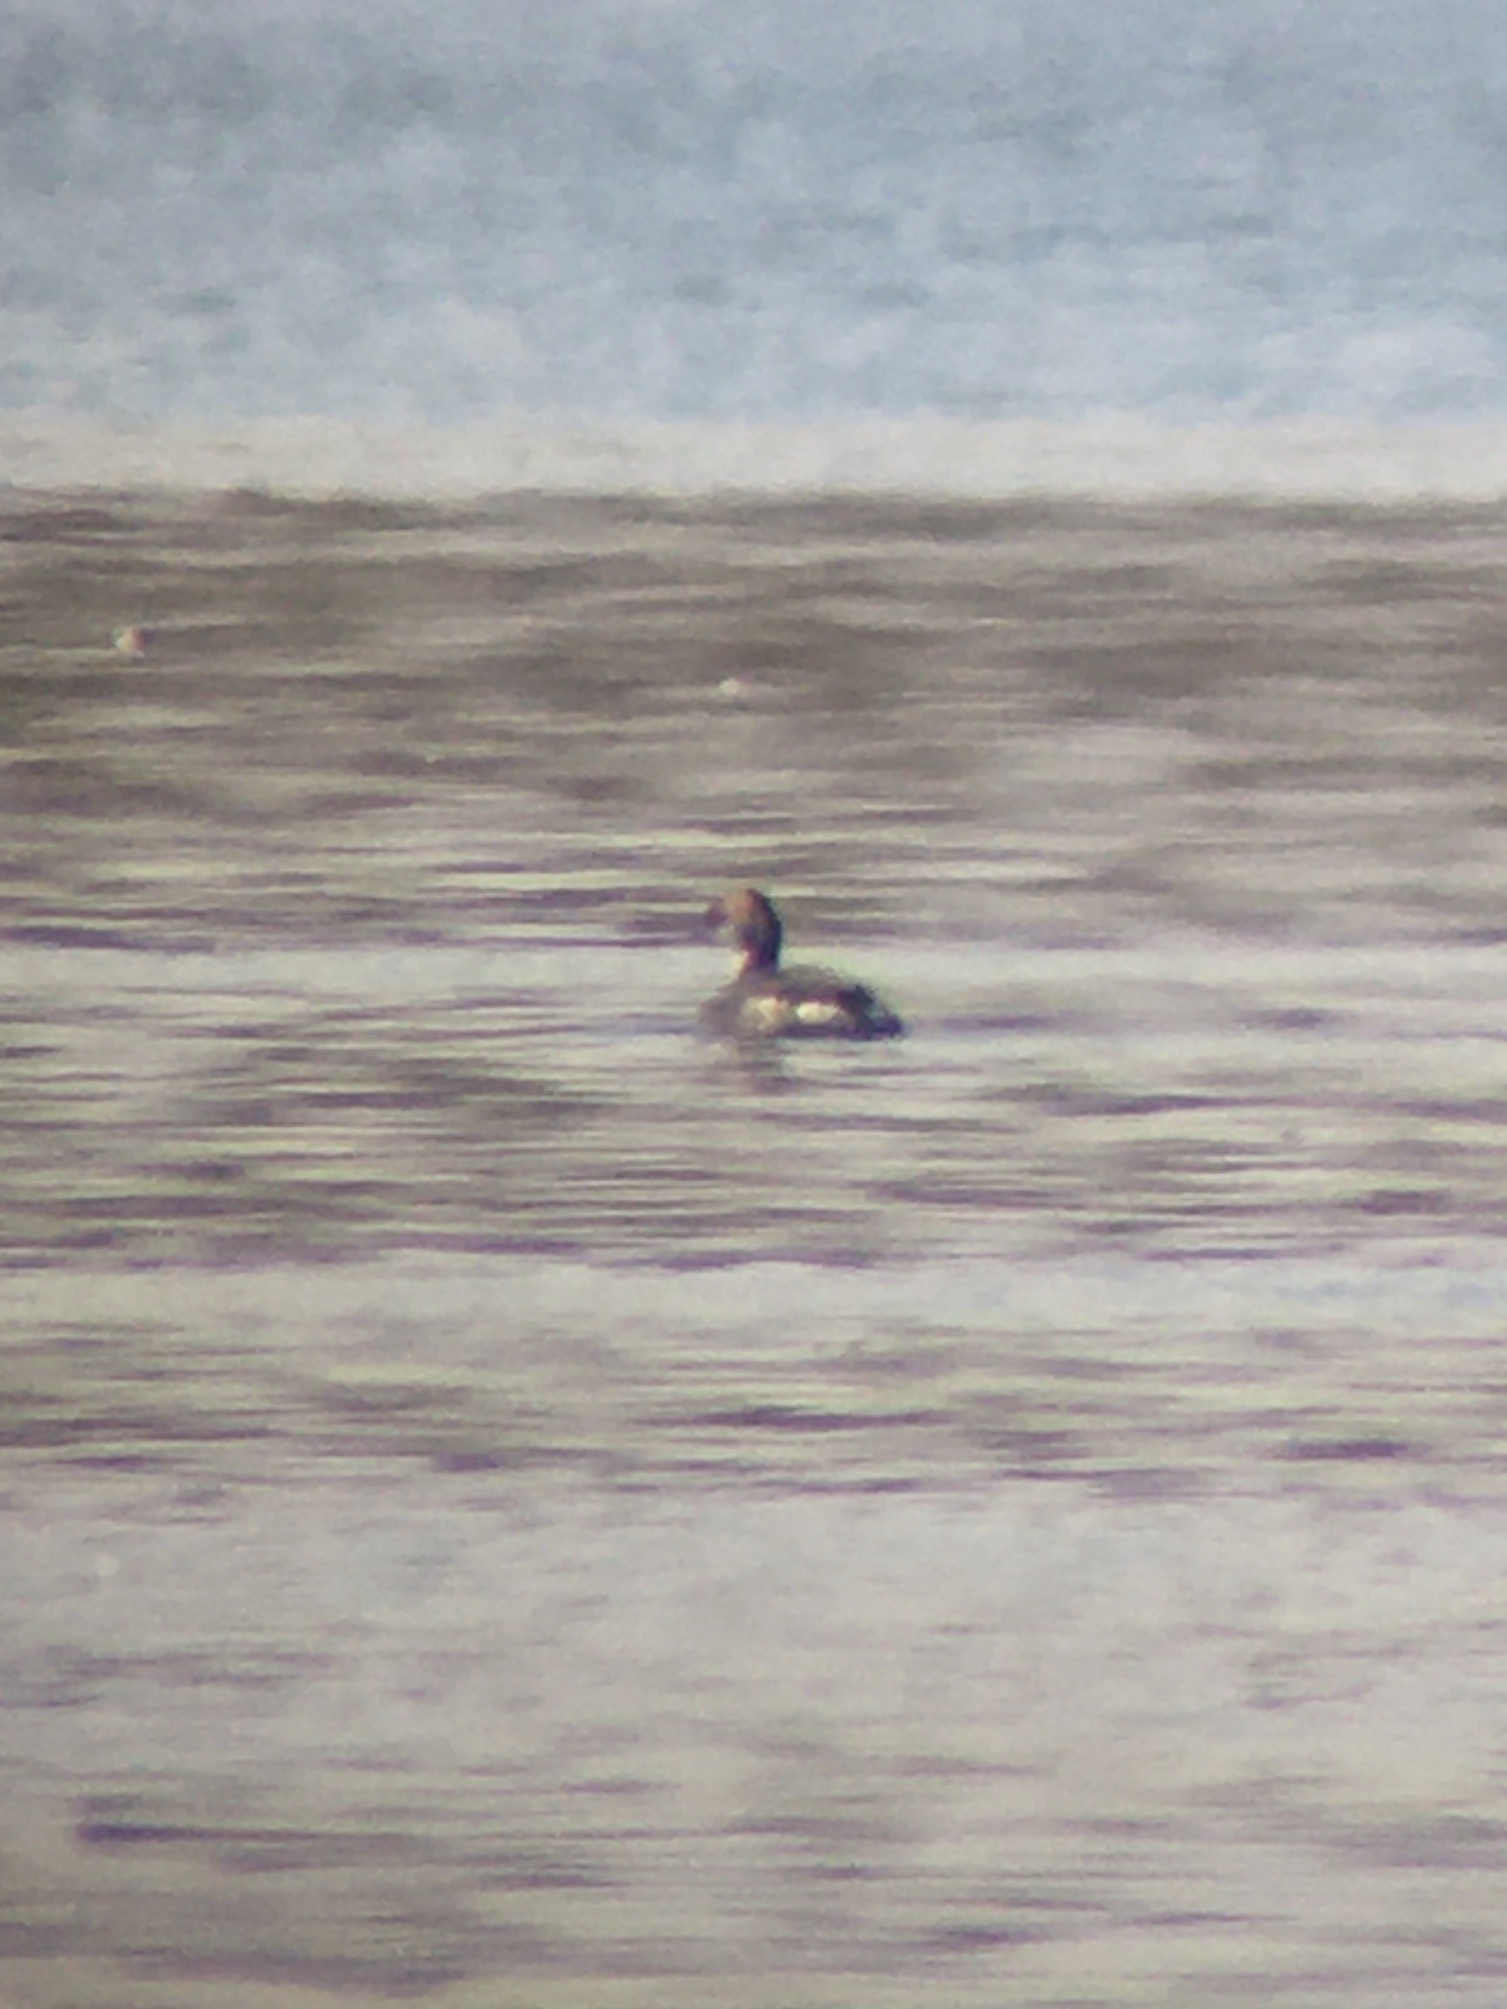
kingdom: Animalia
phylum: Chordata
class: Aves
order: Podicipediformes
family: Podicipedidae
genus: Podiceps
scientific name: Podiceps auritus
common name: Horned grebe
